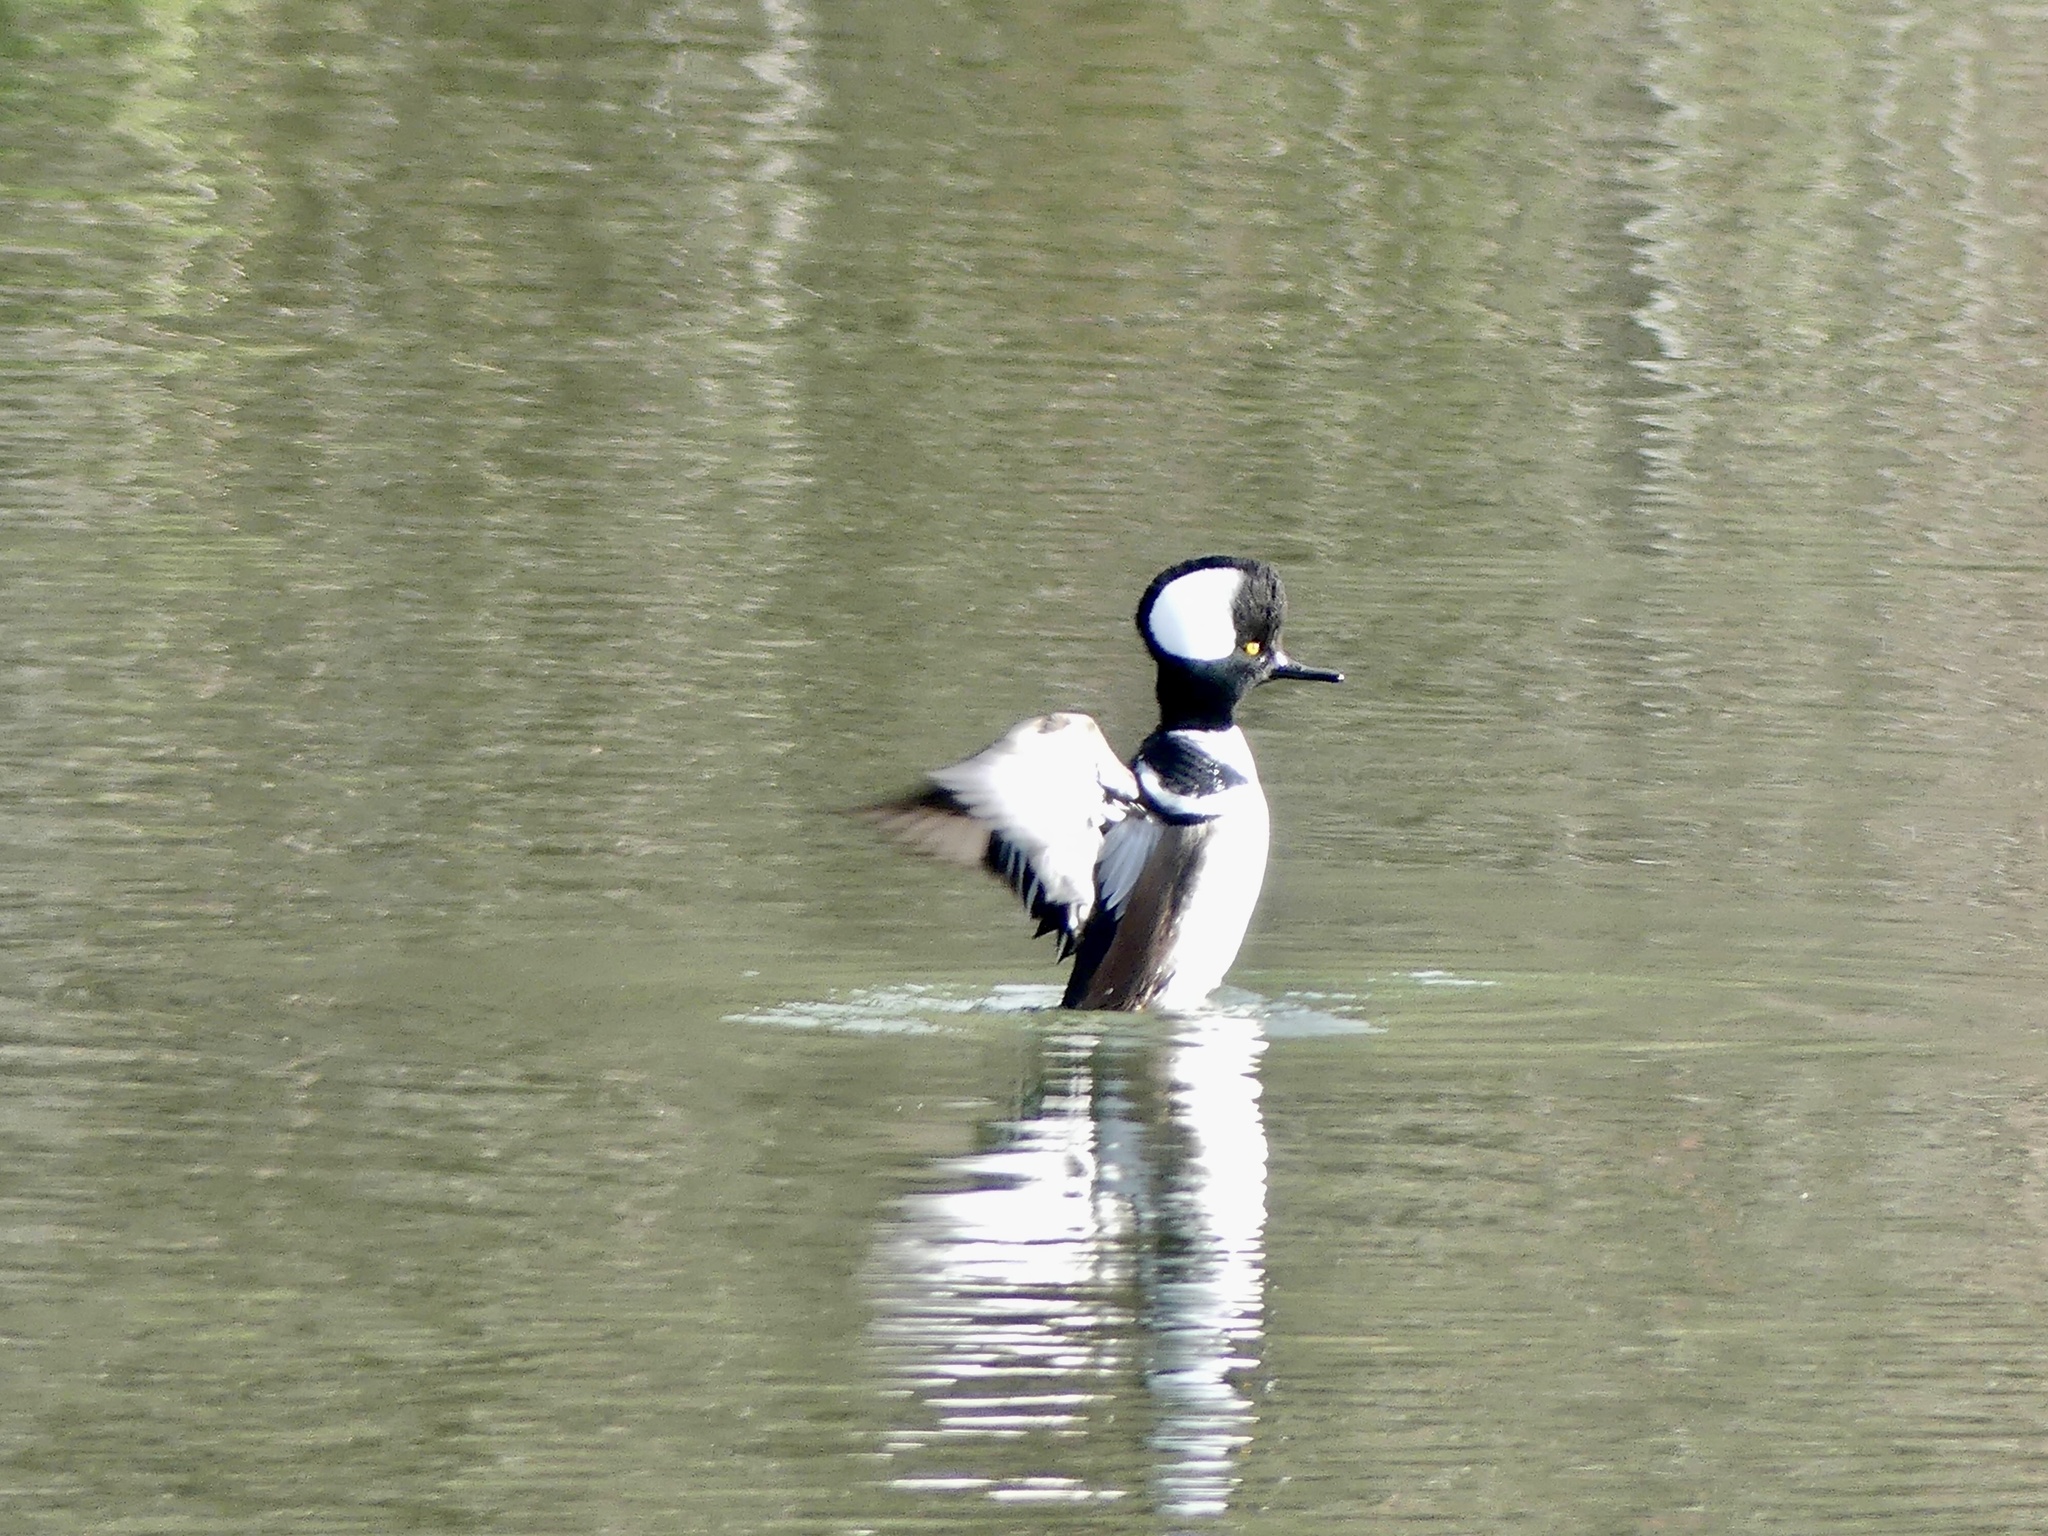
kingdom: Animalia
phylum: Chordata
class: Aves
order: Anseriformes
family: Anatidae
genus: Lophodytes
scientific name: Lophodytes cucullatus
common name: Hooded merganser
